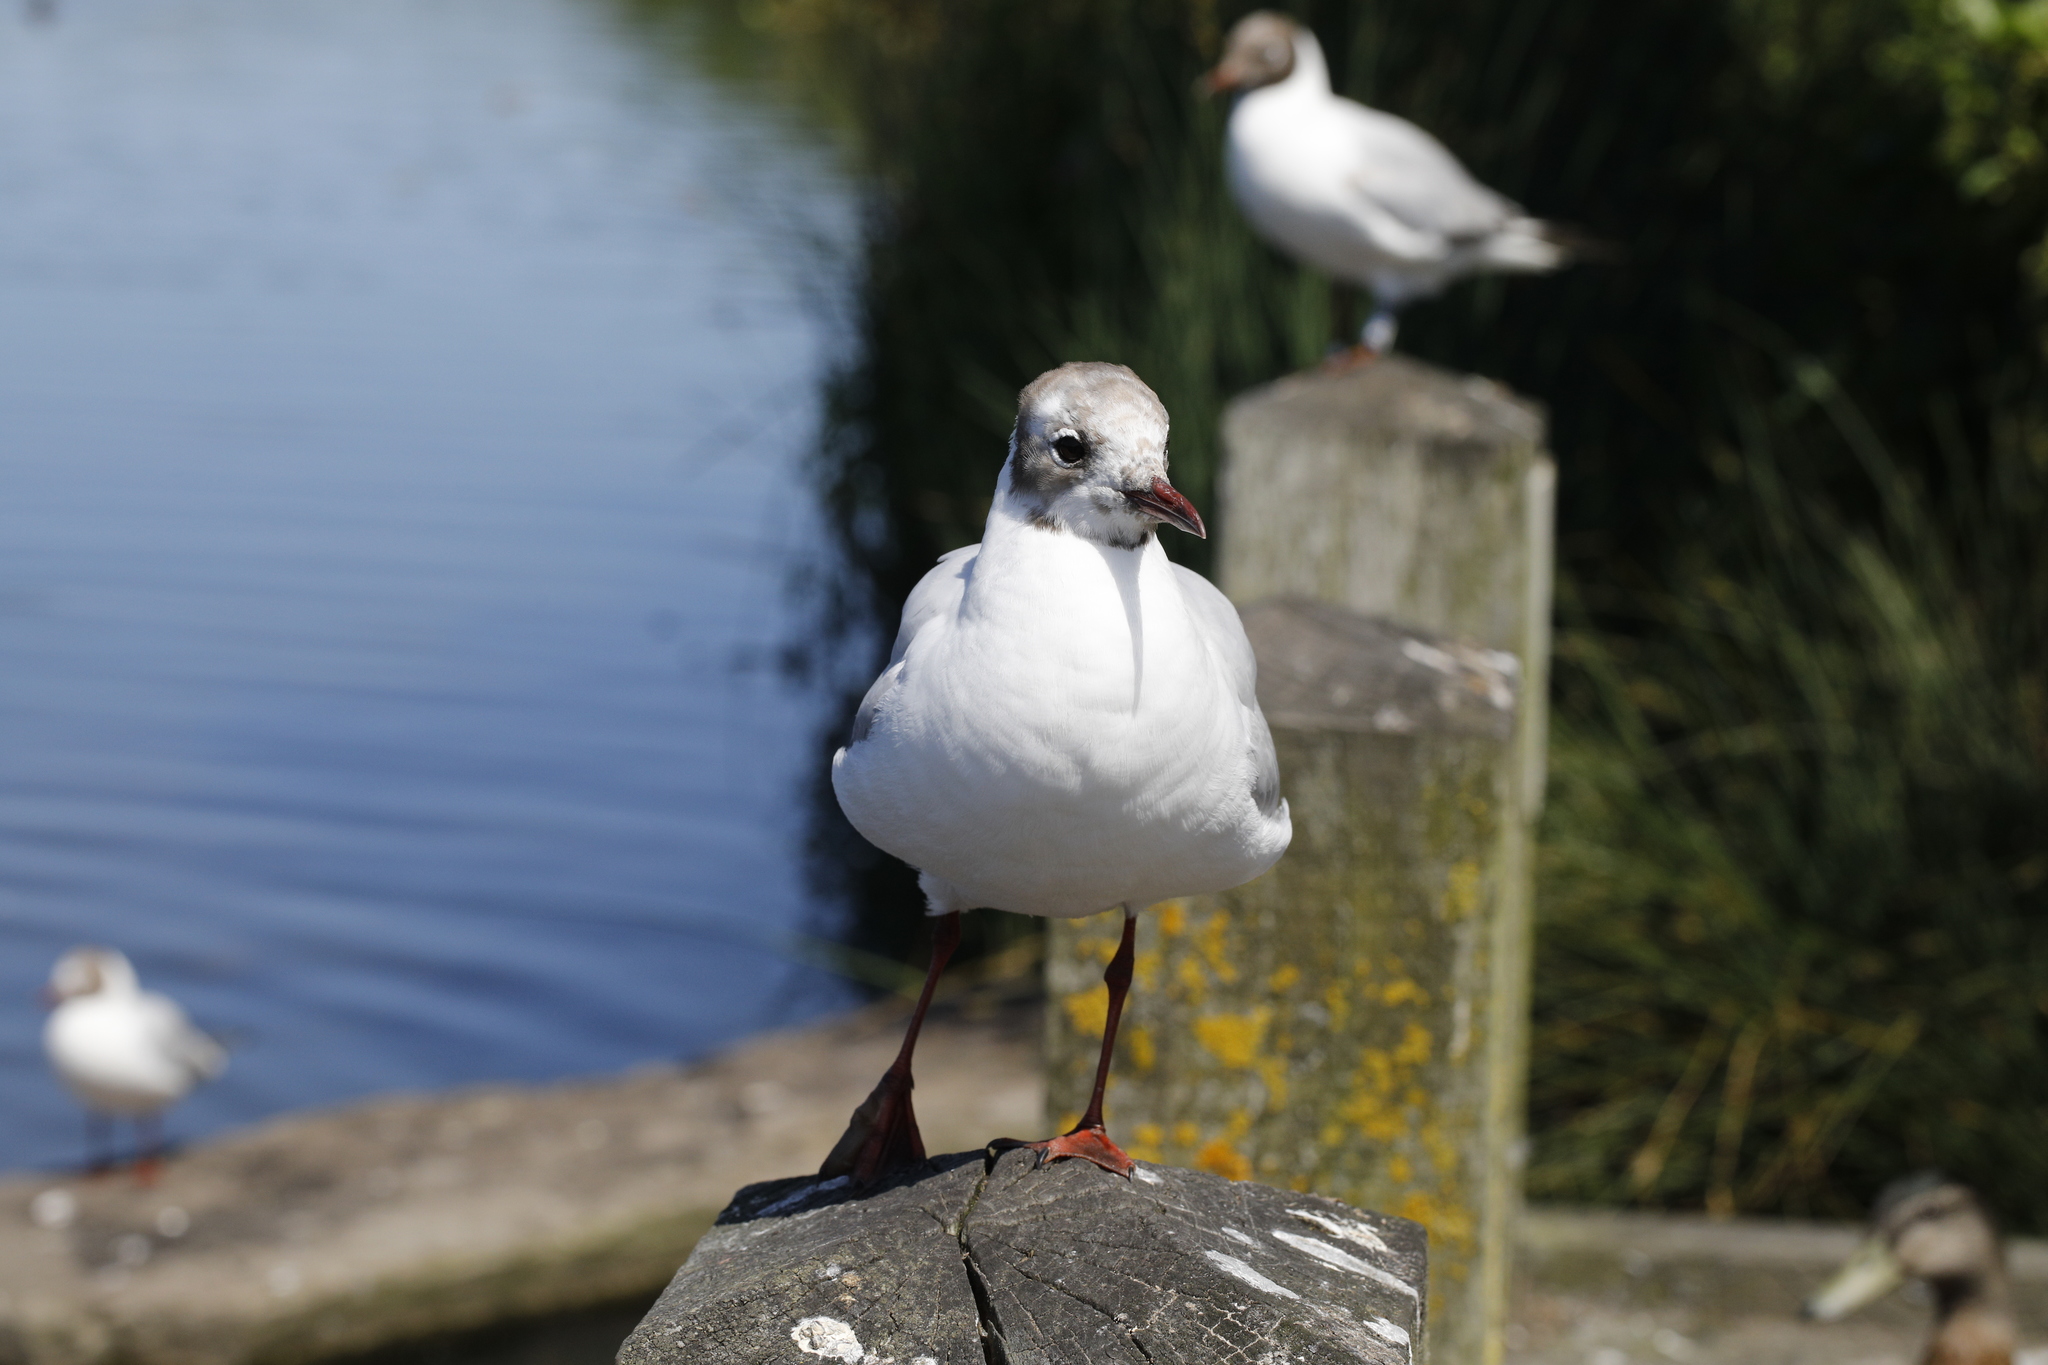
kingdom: Animalia
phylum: Chordata
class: Aves
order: Charadriiformes
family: Laridae
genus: Chroicocephalus
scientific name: Chroicocephalus ridibundus
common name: Black-headed gull
